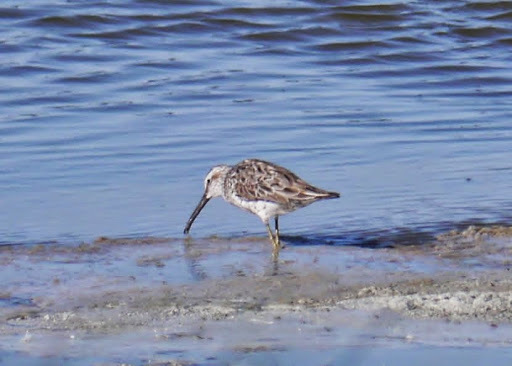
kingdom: Animalia
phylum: Chordata
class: Aves
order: Charadriiformes
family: Scolopacidae
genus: Calidris
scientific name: Calidris himantopus
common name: Stilt sandpiper
